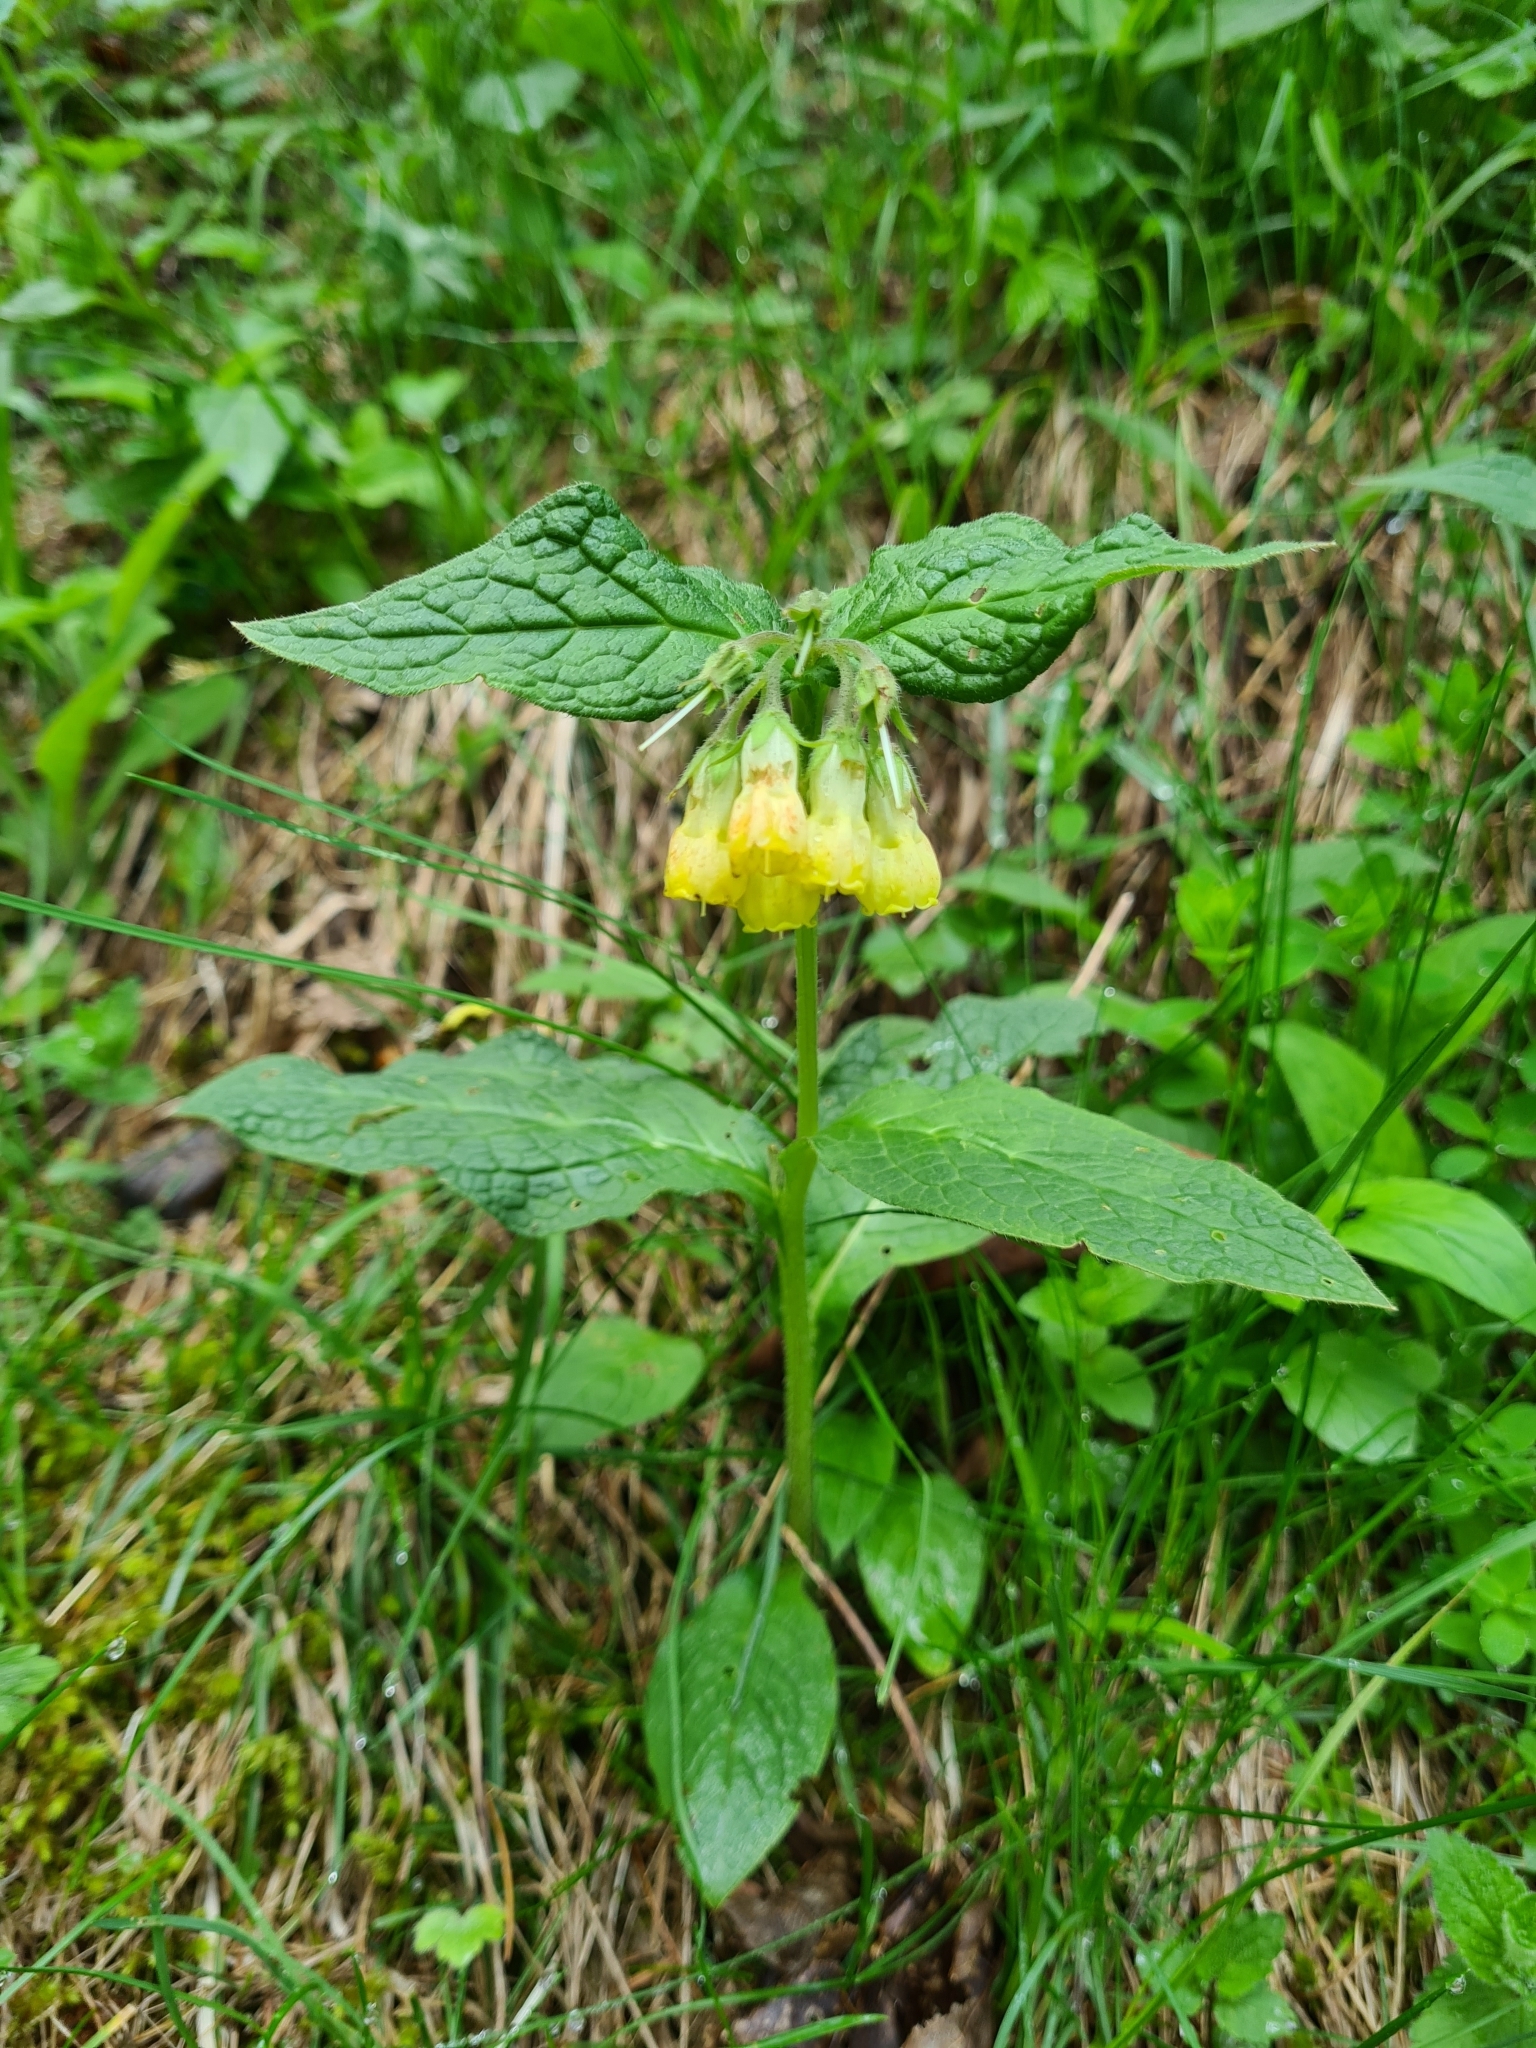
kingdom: Plantae
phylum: Tracheophyta
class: Magnoliopsida
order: Boraginales
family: Boraginaceae
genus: Symphytum
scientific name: Symphytum tuberosum
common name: Tuberous comfrey
